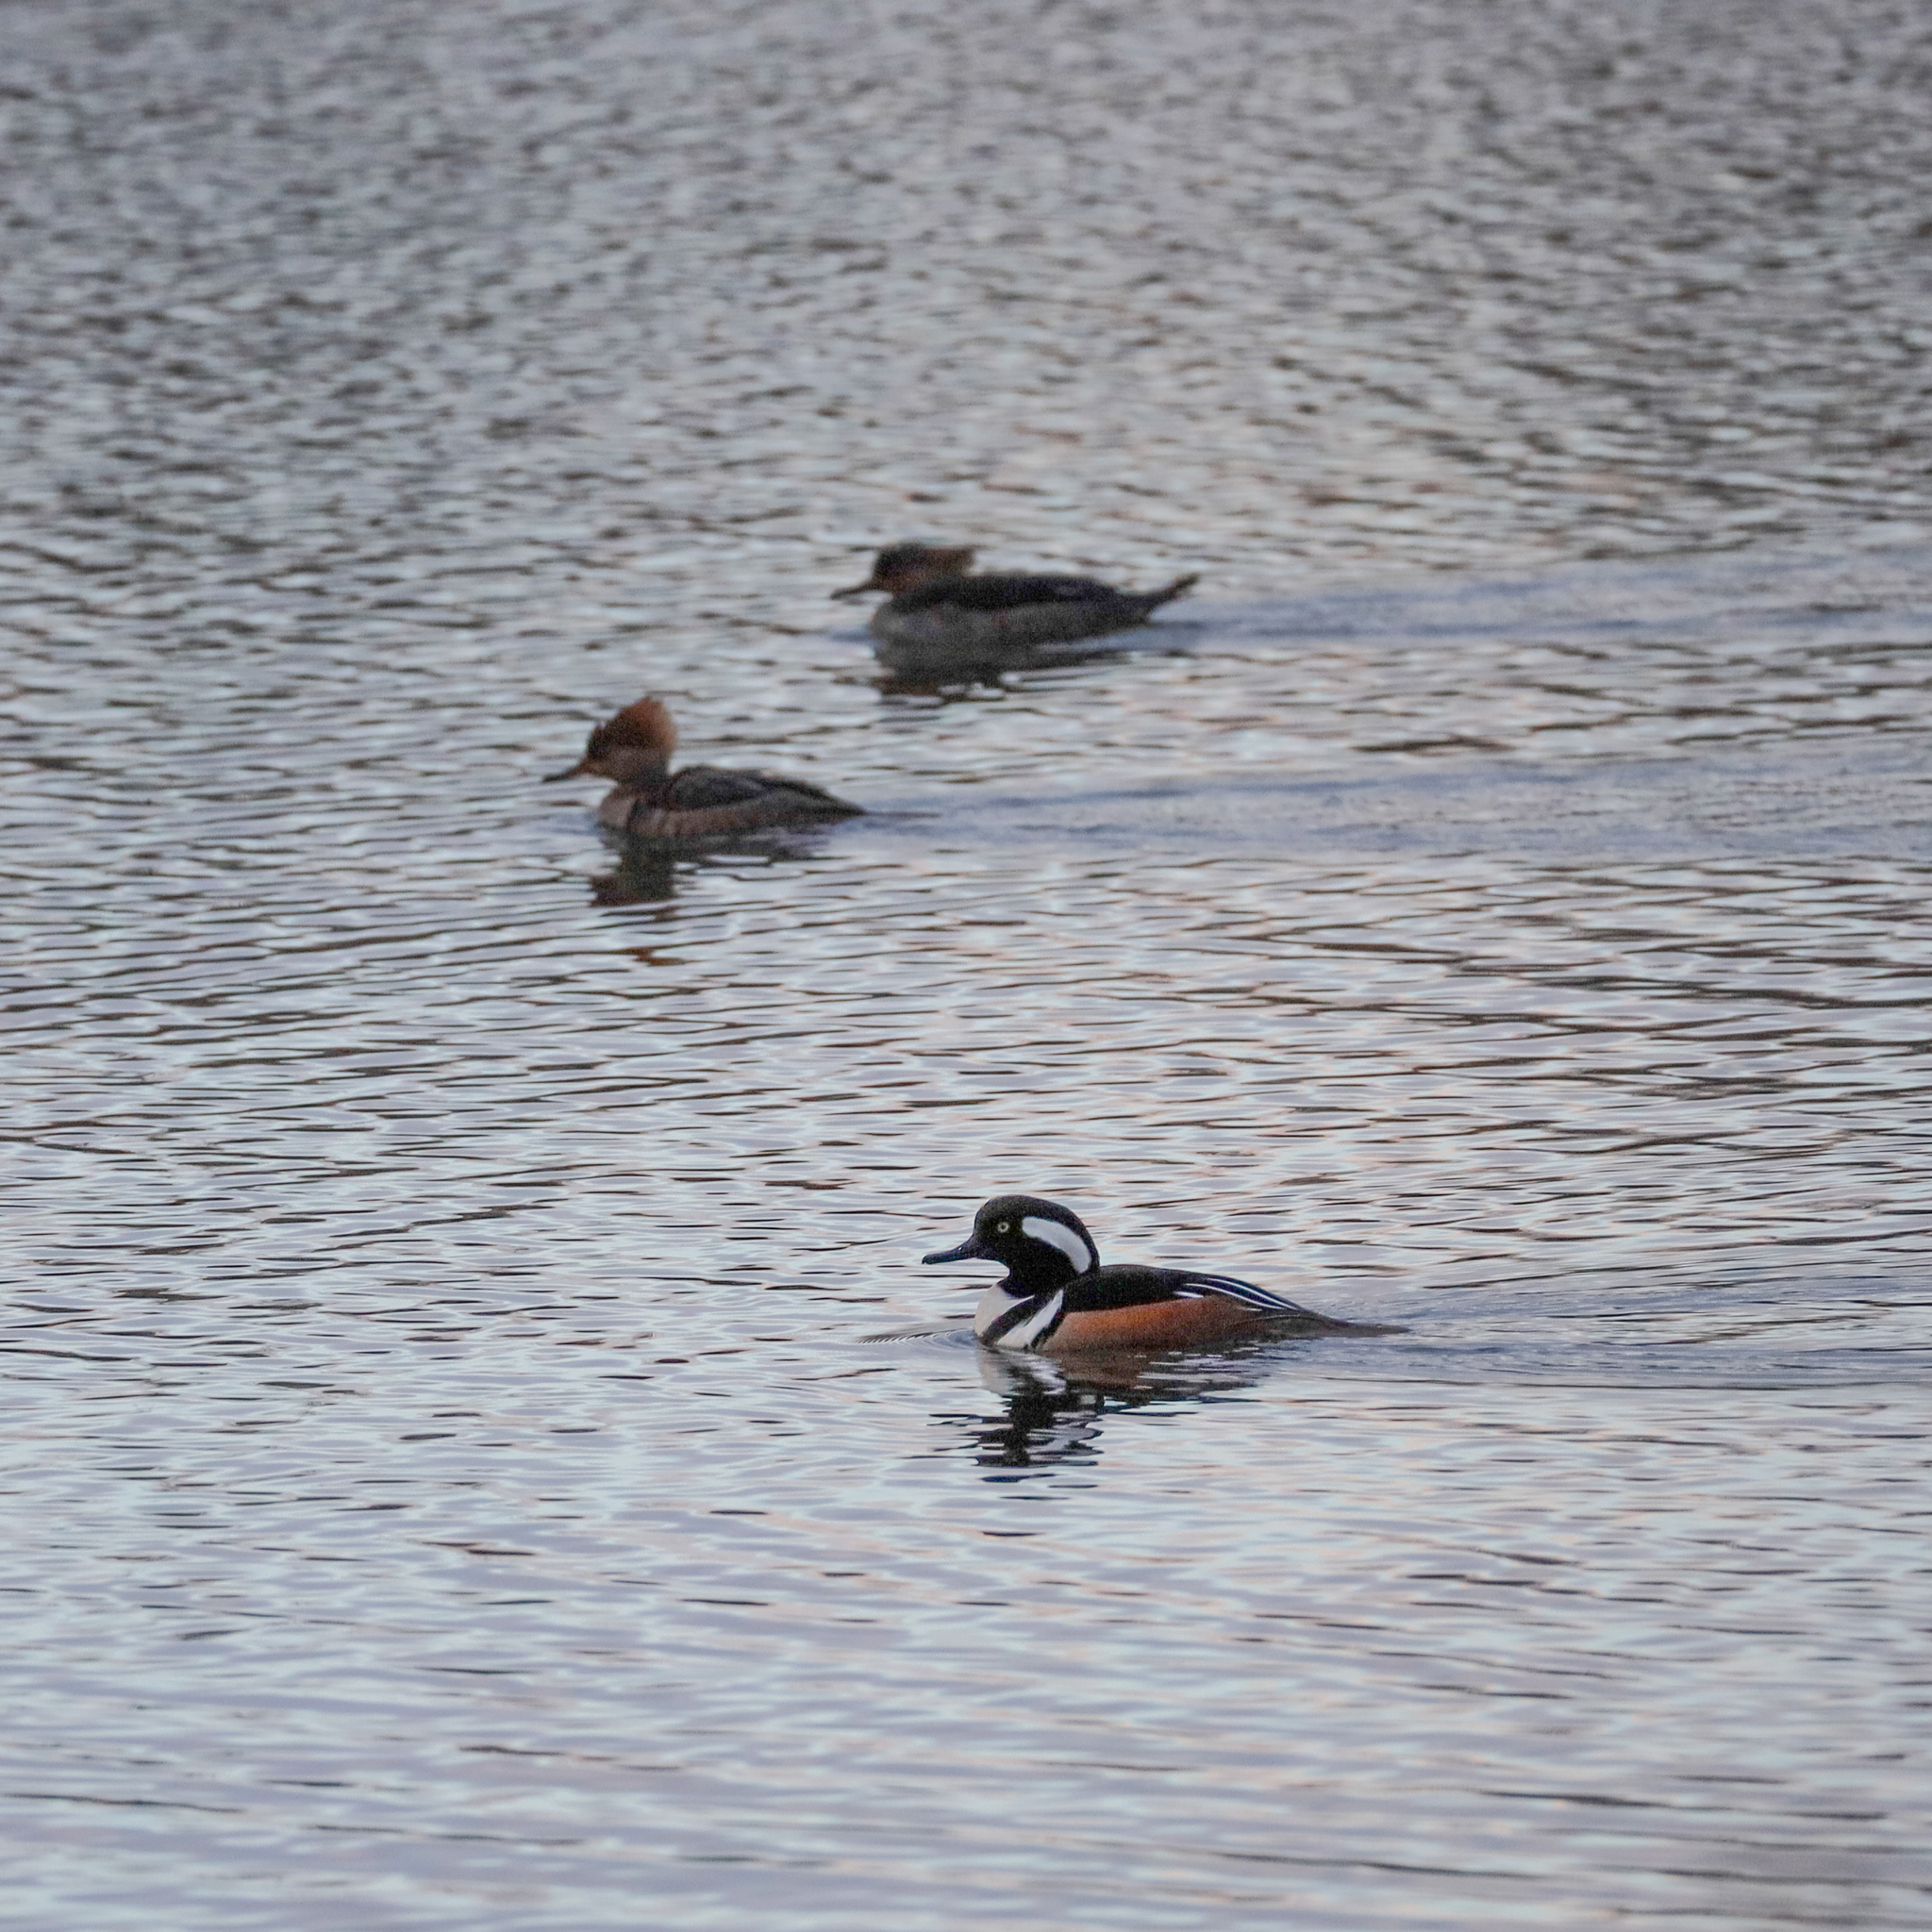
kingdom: Animalia
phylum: Chordata
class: Aves
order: Anseriformes
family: Anatidae
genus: Lophodytes
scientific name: Lophodytes cucullatus
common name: Hooded merganser
